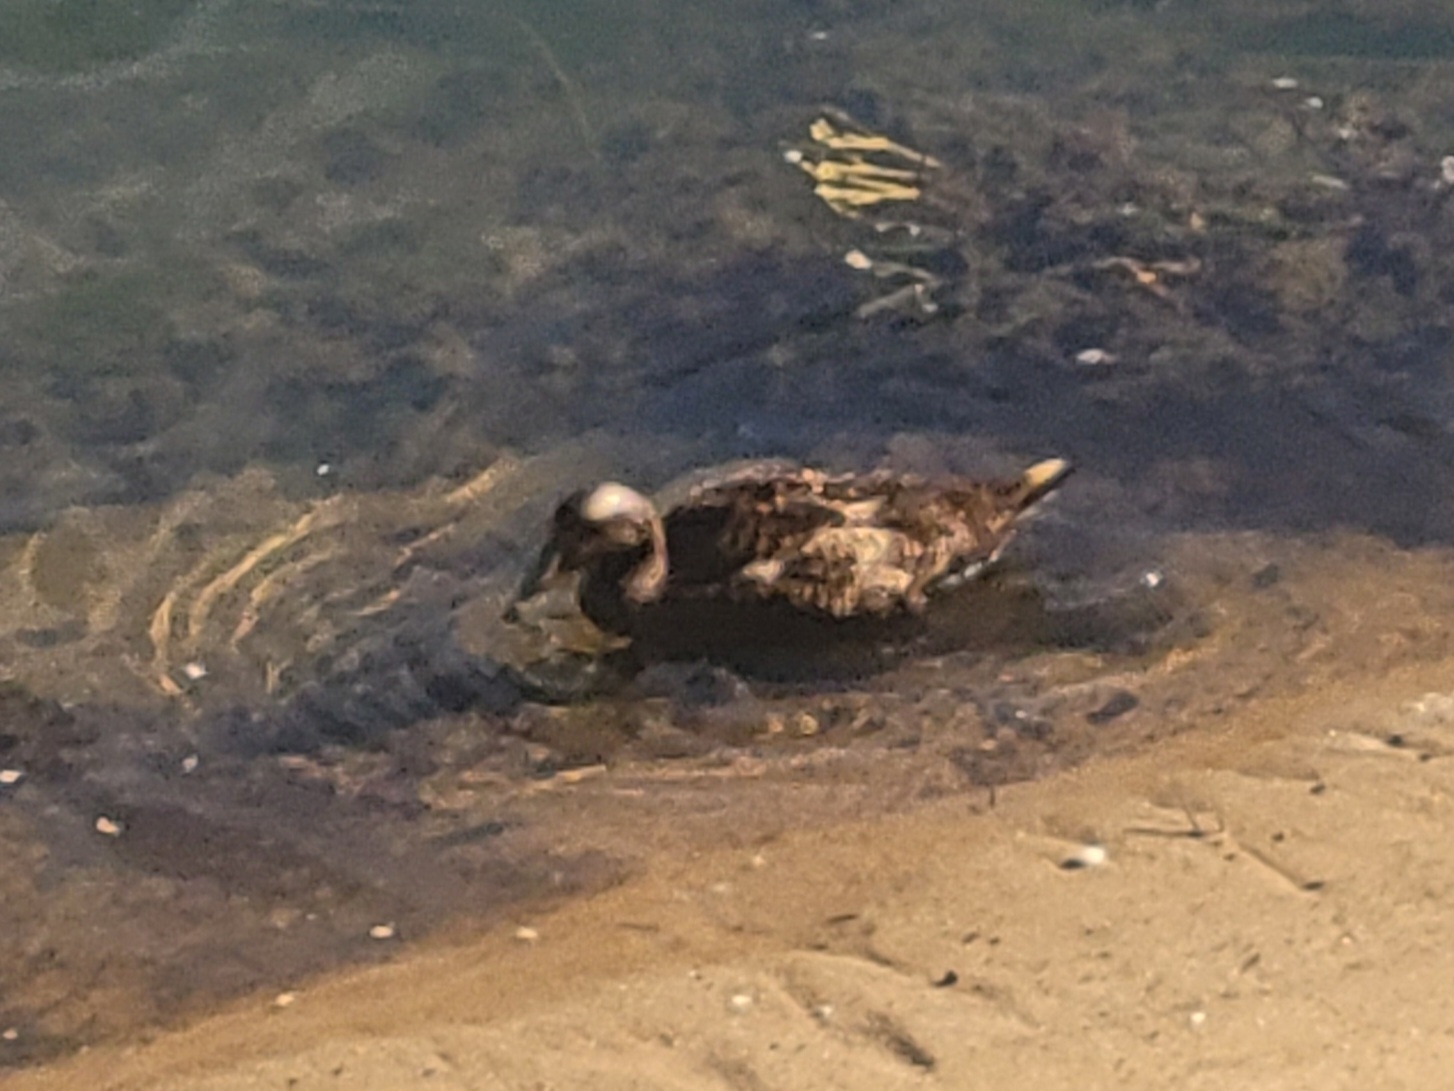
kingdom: Animalia
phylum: Chordata
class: Aves
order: Anseriformes
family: Anatidae
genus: Somateria
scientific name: Somateria mollissima
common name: Common eider
